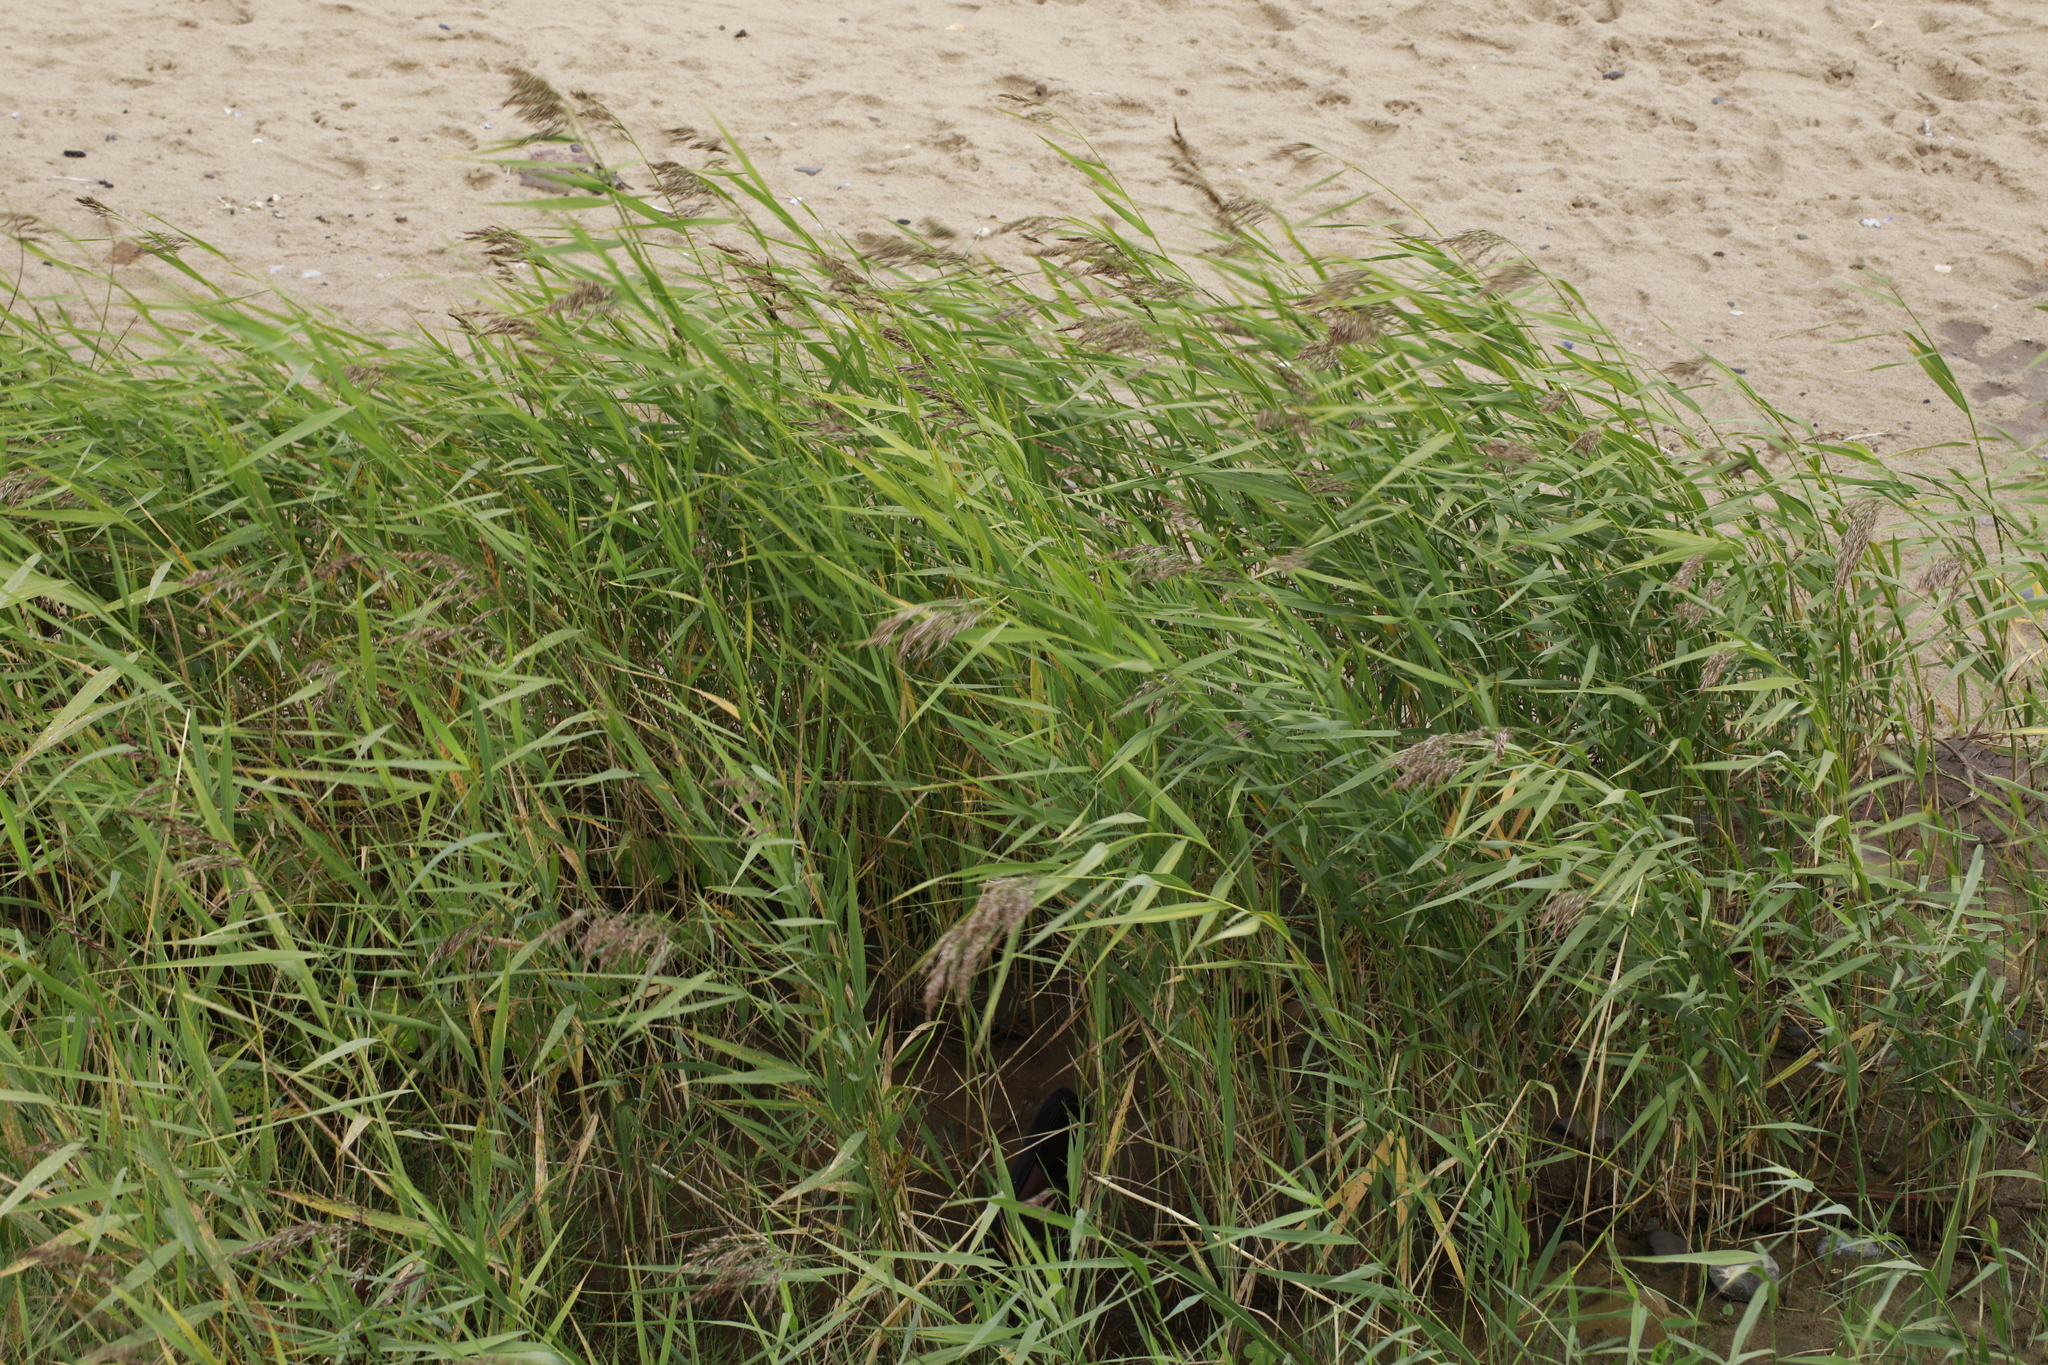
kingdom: Plantae
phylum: Tracheophyta
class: Liliopsida
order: Poales
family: Poaceae
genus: Phragmites
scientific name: Phragmites australis
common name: Common reed
